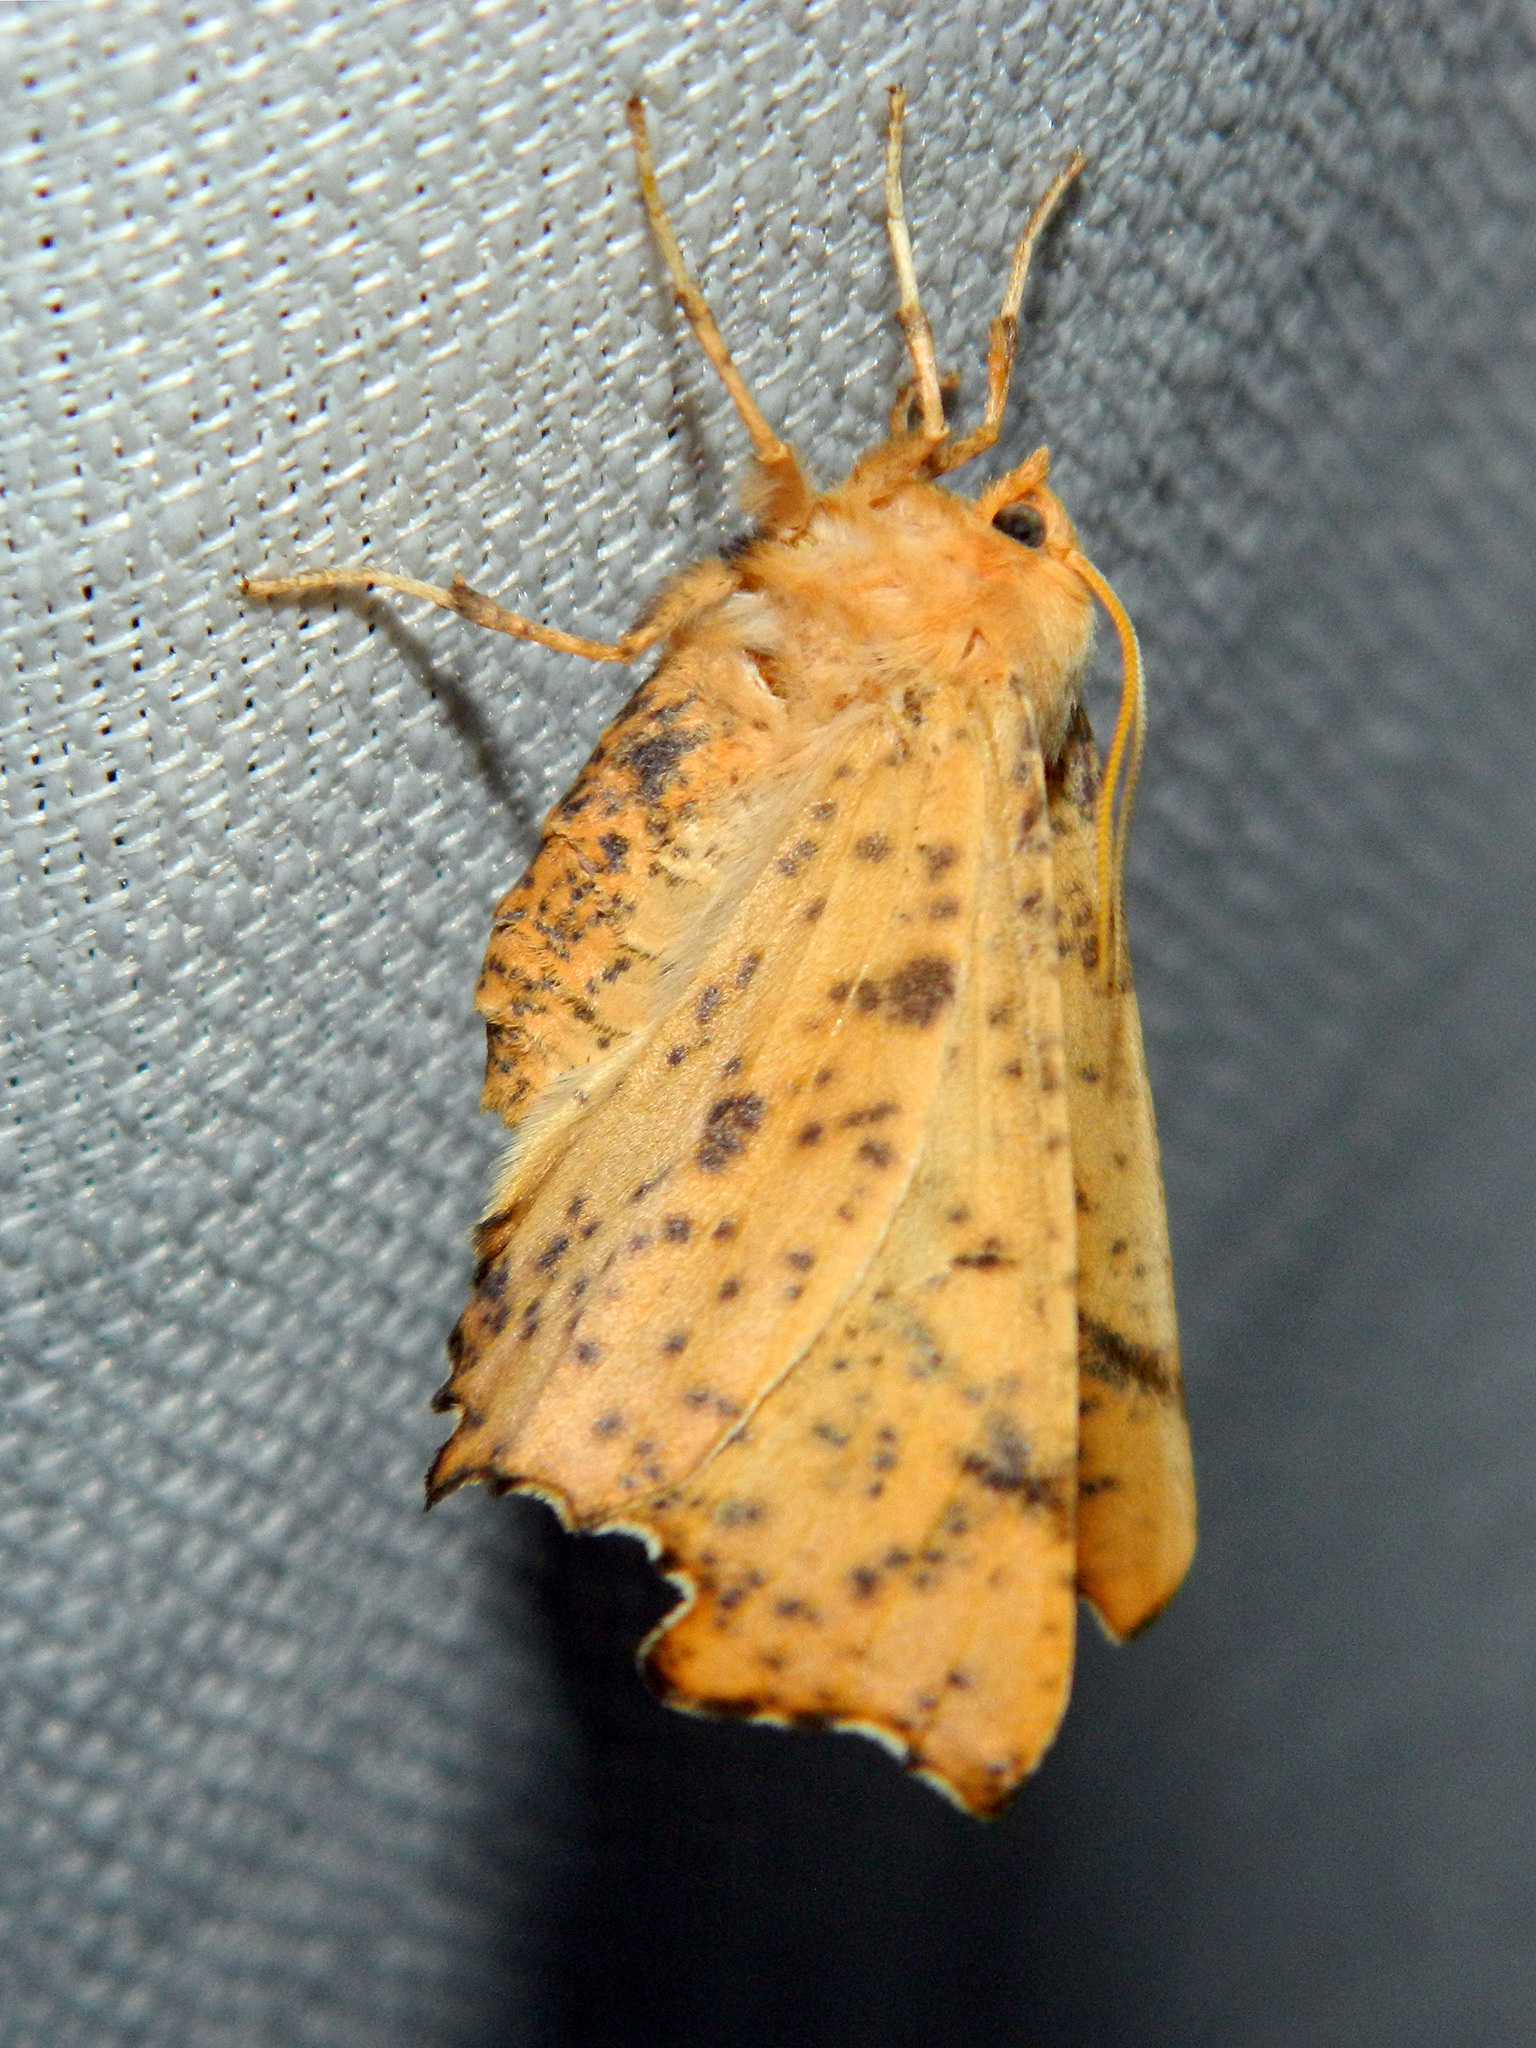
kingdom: Animalia
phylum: Arthropoda
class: Insecta
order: Lepidoptera
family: Geometridae
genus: Ennomos
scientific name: Ennomos magnaria
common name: Maple spanworm
